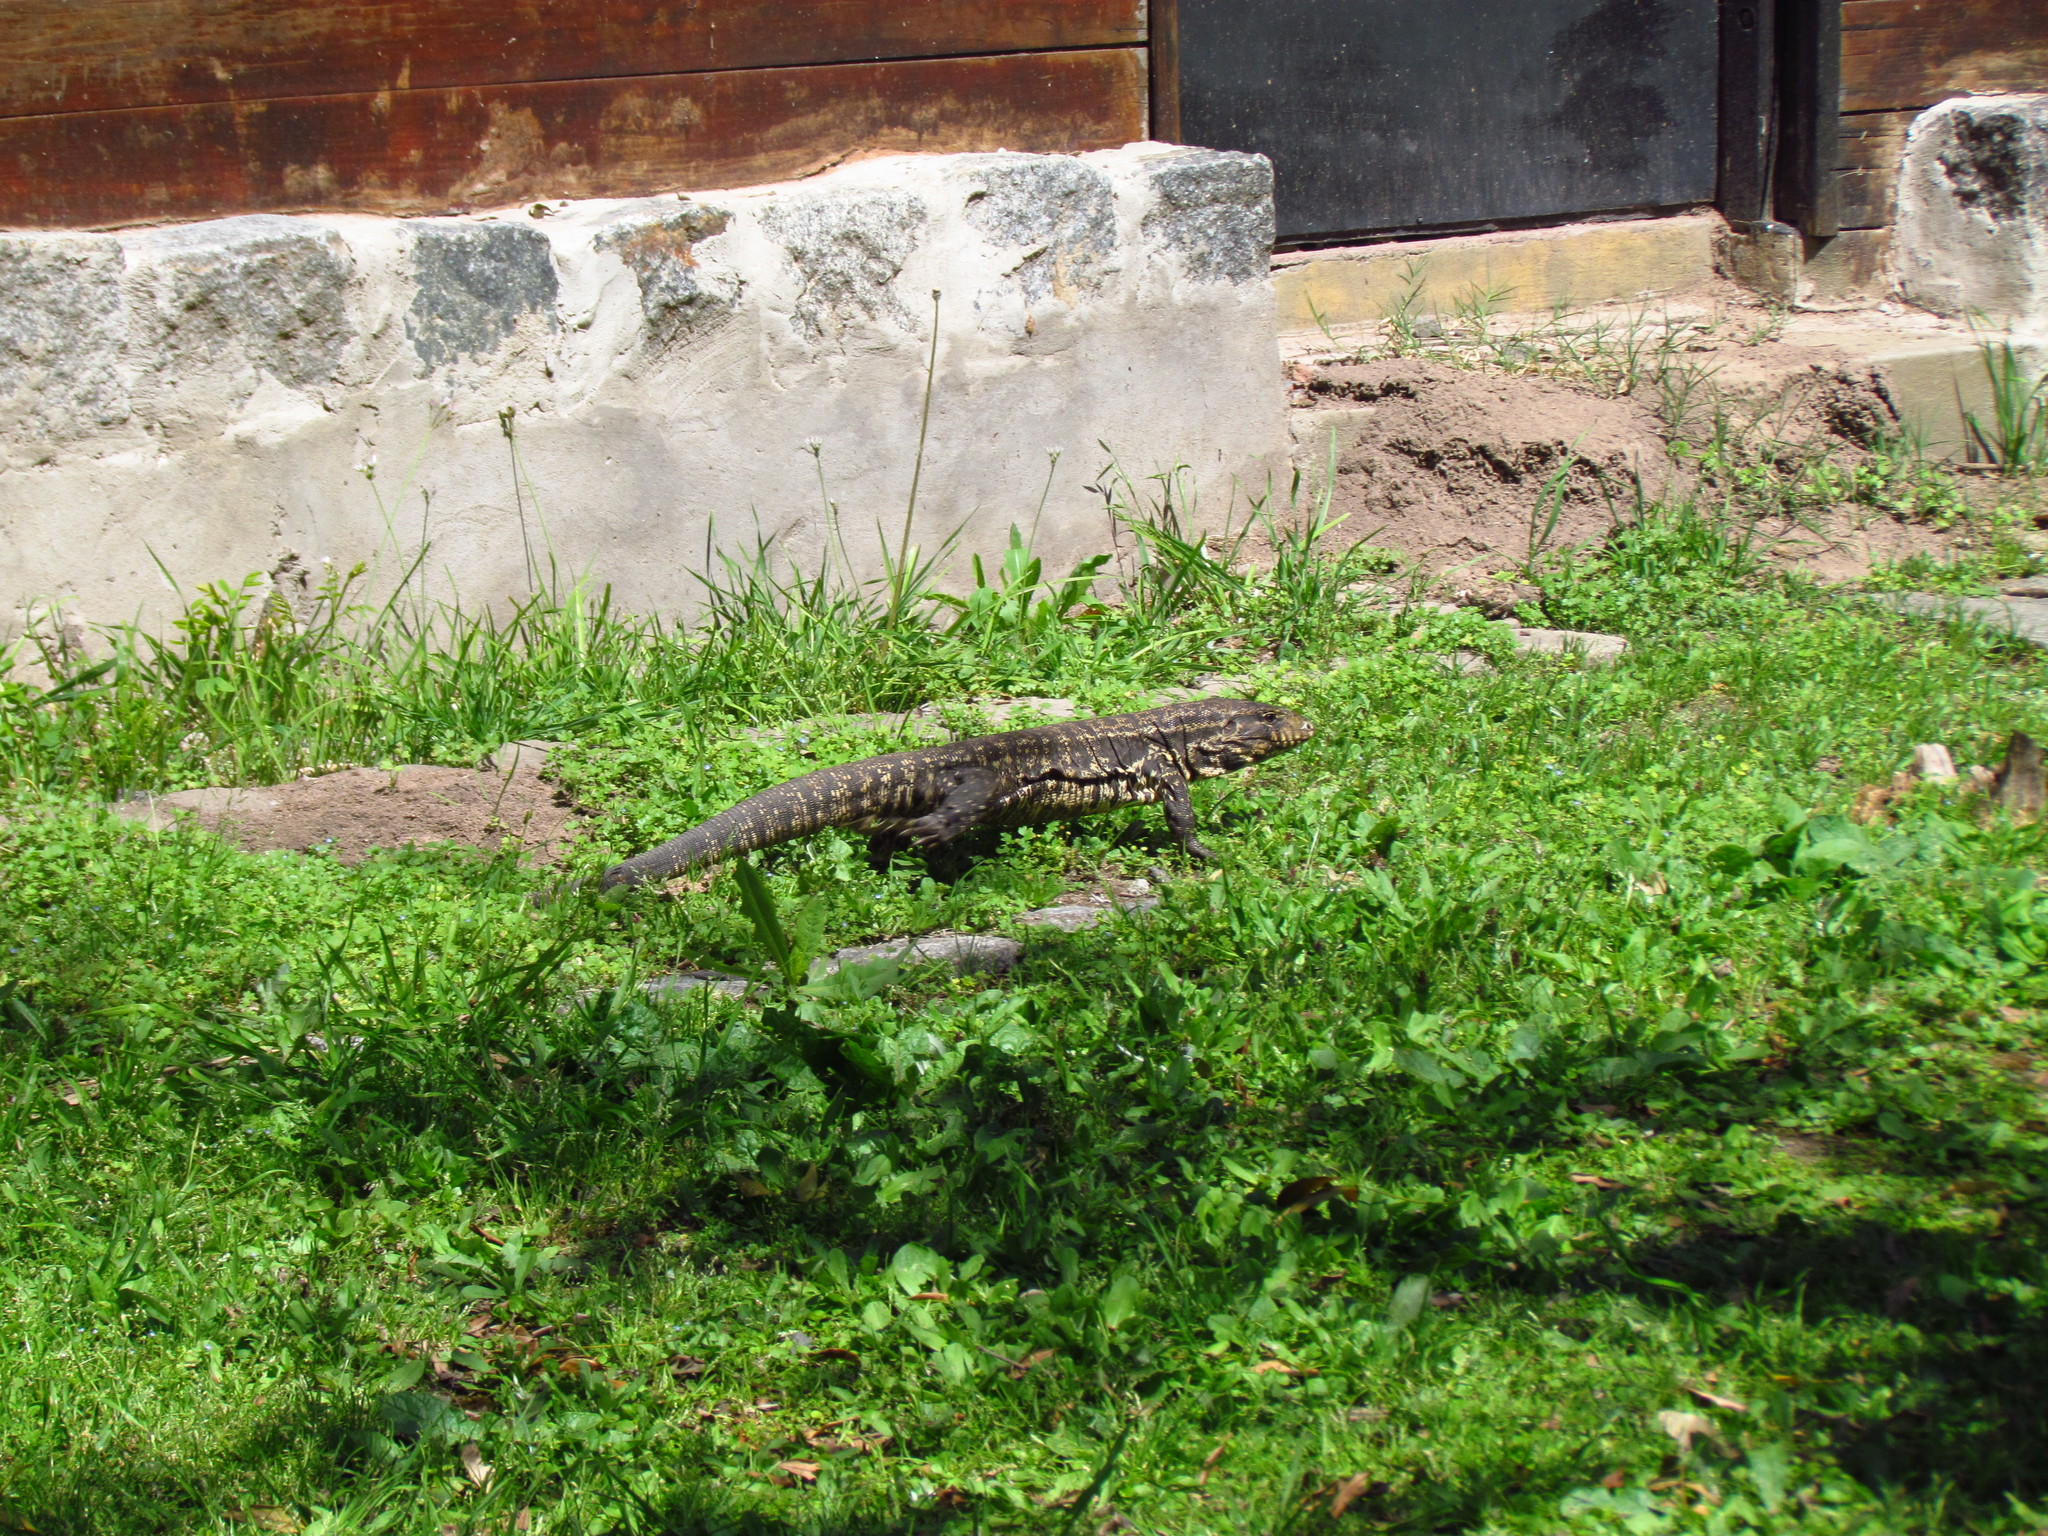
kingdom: Animalia
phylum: Chordata
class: Squamata
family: Teiidae
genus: Salvator
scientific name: Salvator merianae
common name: Argentine black and white tegu
